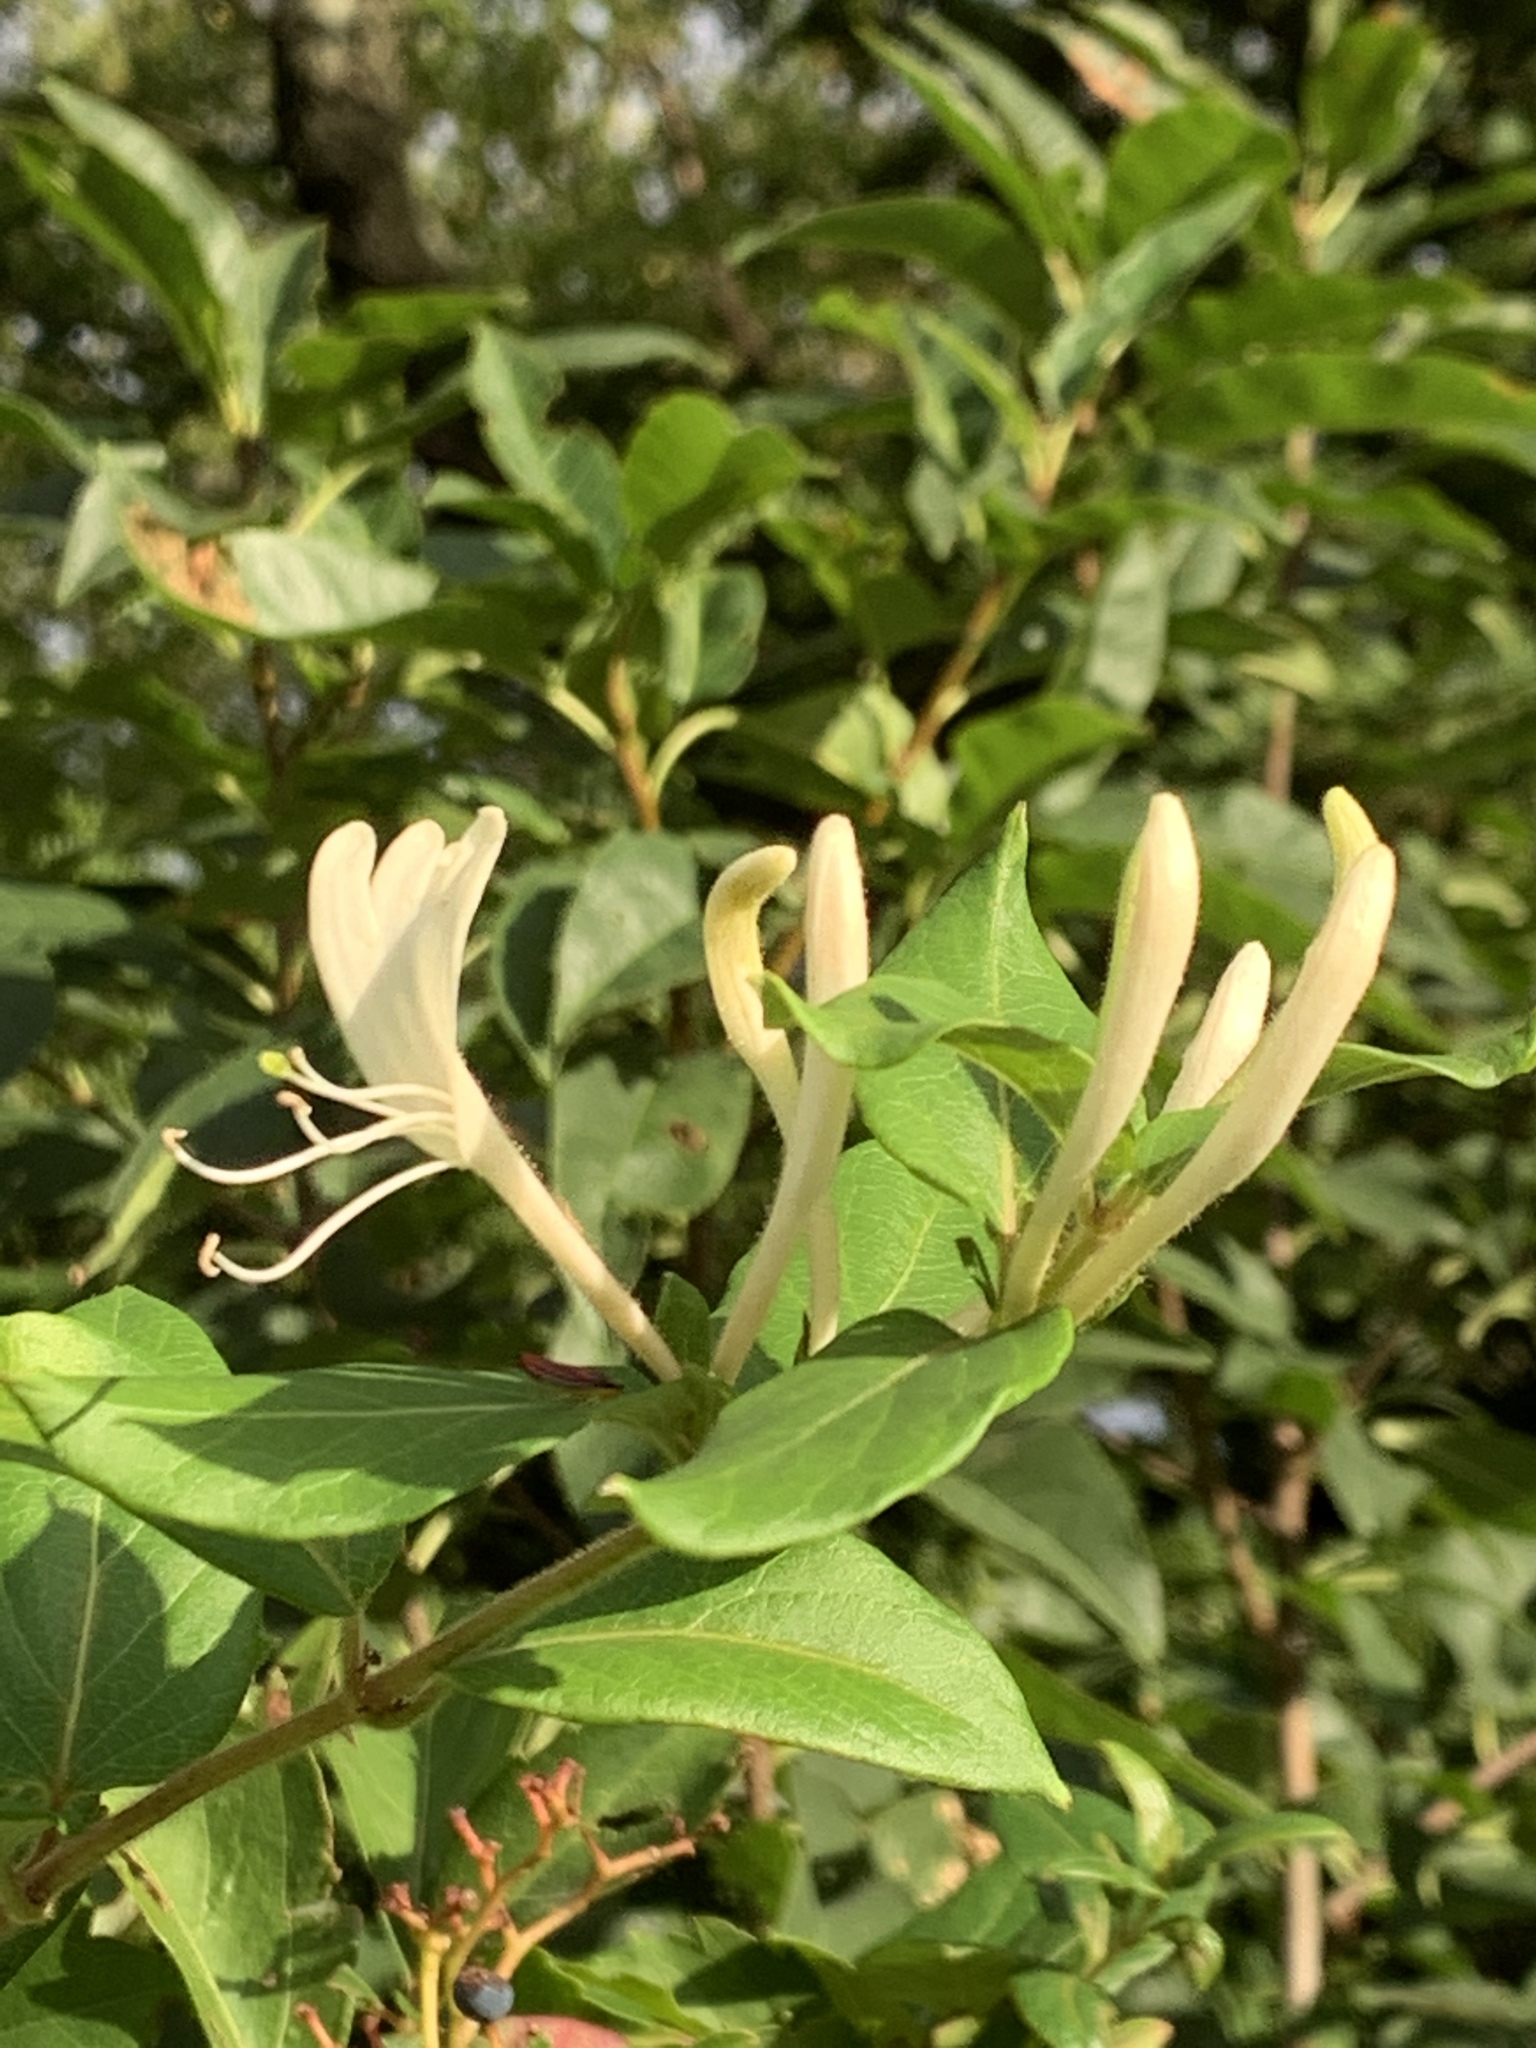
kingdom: Plantae
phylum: Tracheophyta
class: Magnoliopsida
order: Dipsacales
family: Caprifoliaceae
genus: Lonicera
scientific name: Lonicera japonica
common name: Japanese honeysuckle
